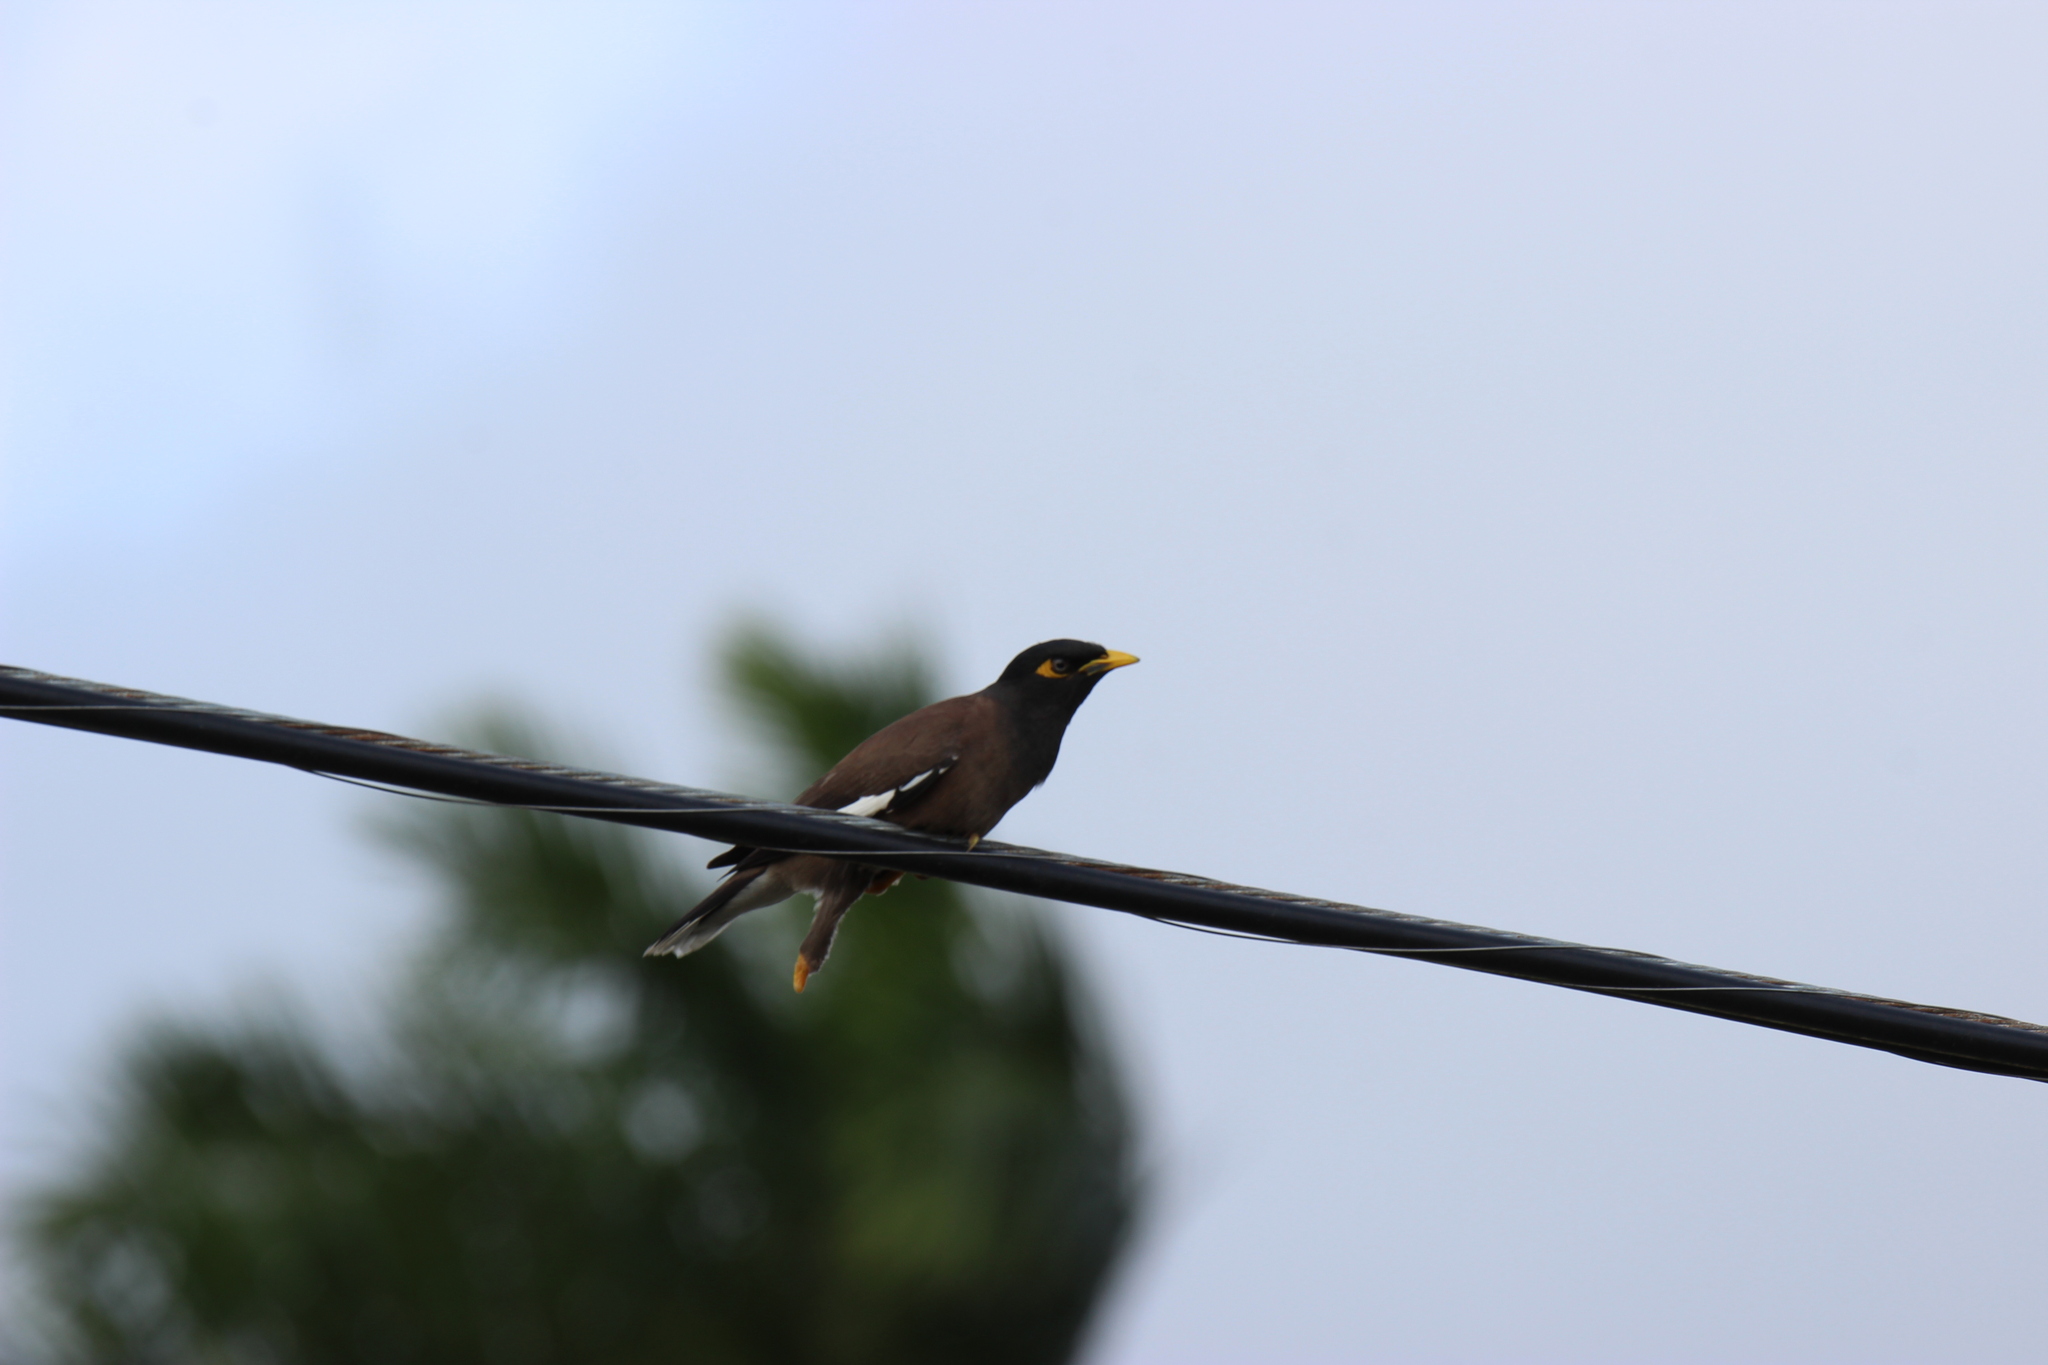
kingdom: Animalia
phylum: Chordata
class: Aves
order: Passeriformes
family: Sturnidae
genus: Acridotheres
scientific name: Acridotheres tristis
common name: Common myna
